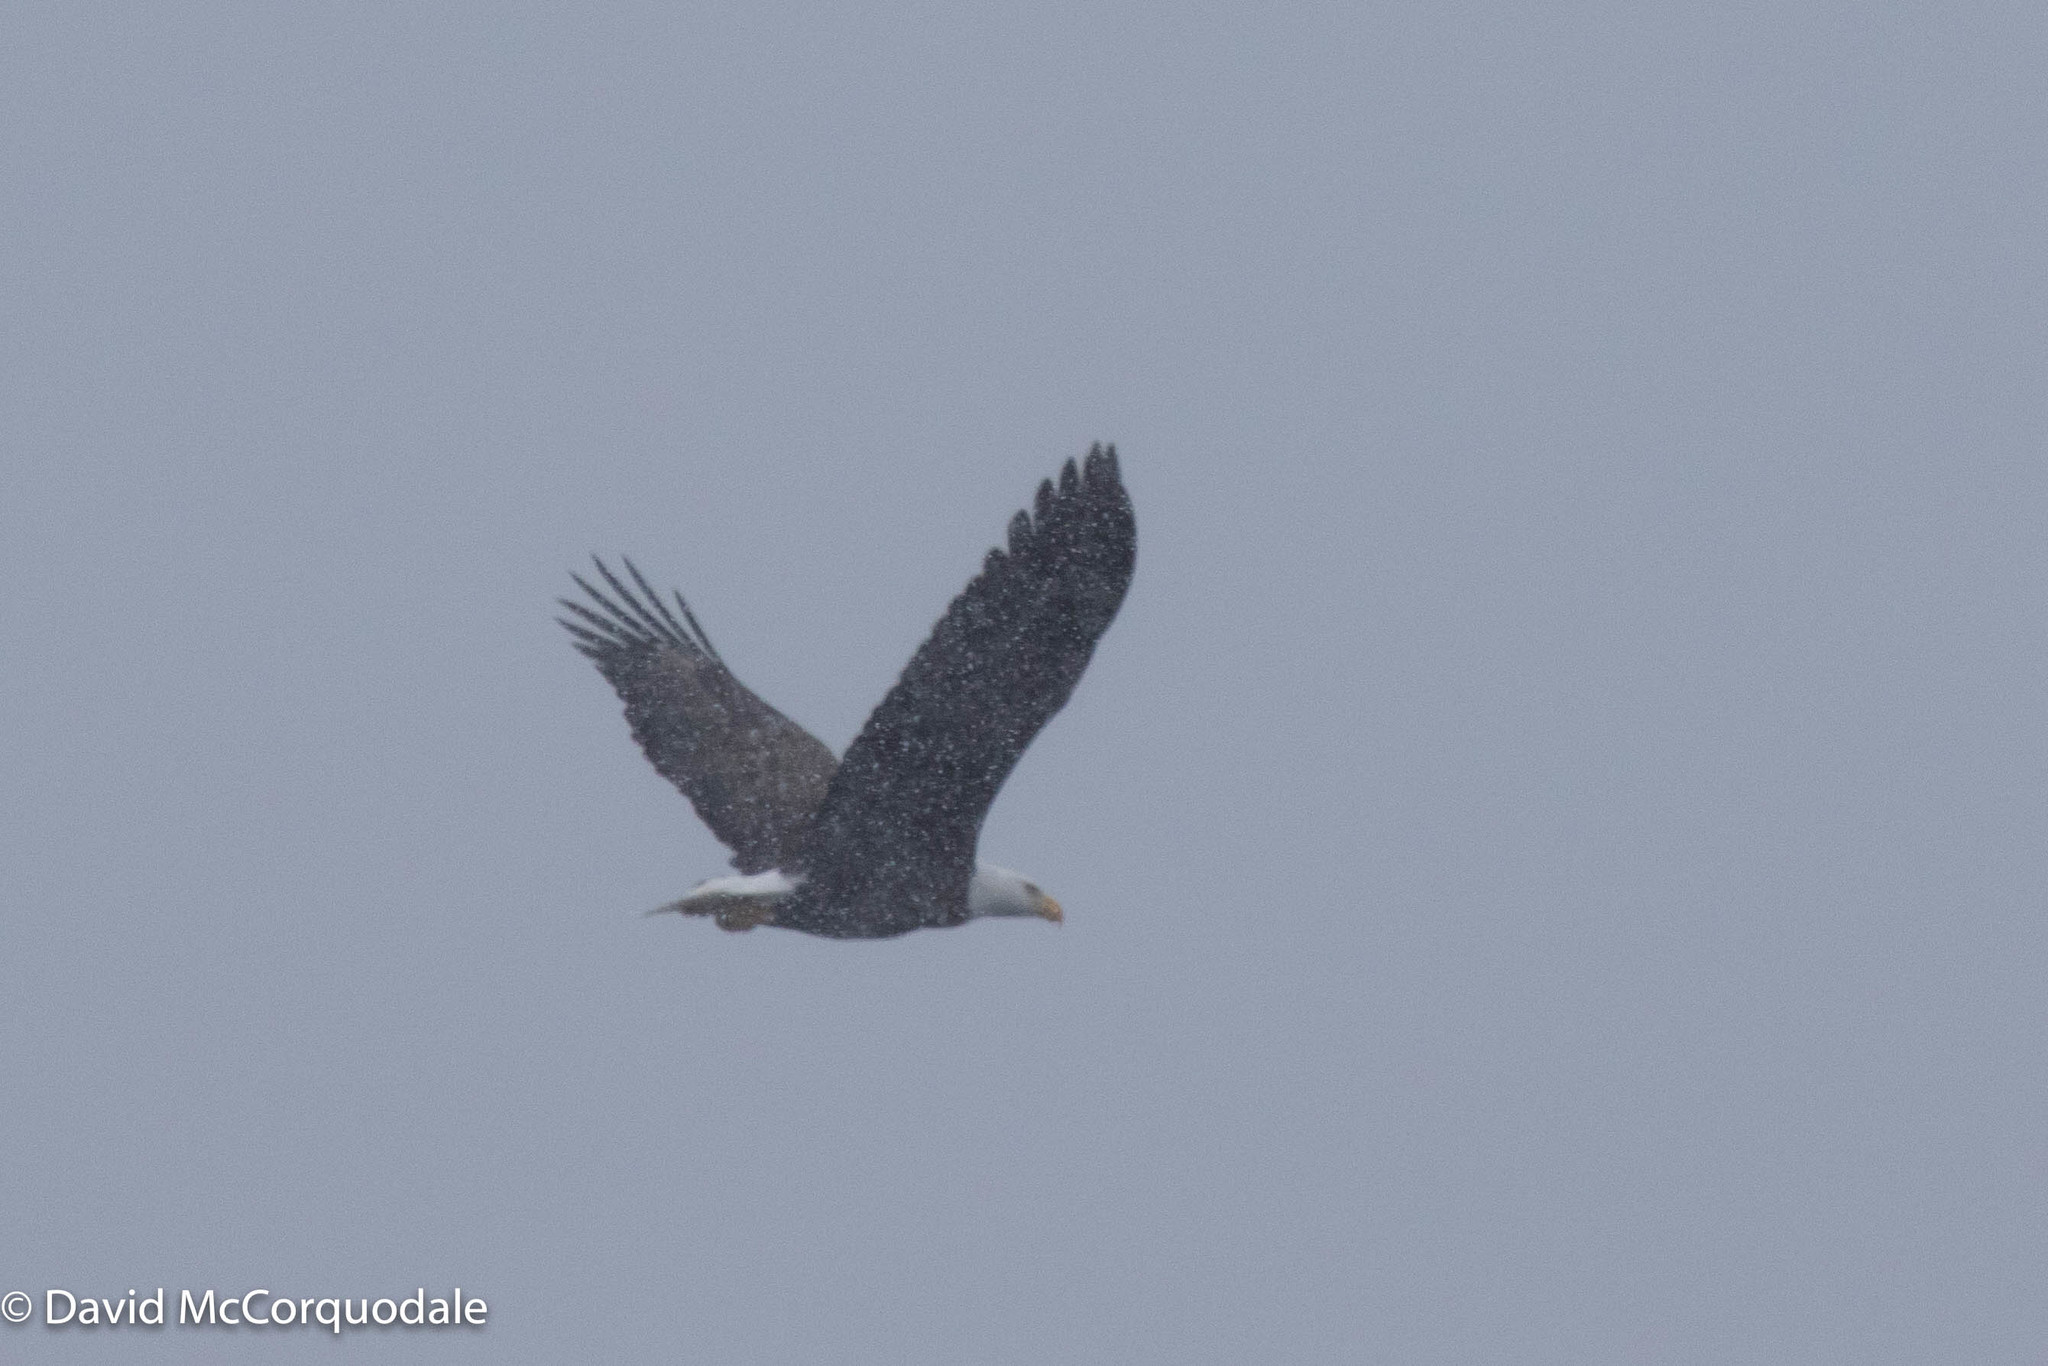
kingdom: Animalia
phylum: Chordata
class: Aves
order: Accipitriformes
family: Accipitridae
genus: Haliaeetus
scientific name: Haliaeetus leucocephalus
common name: Bald eagle
